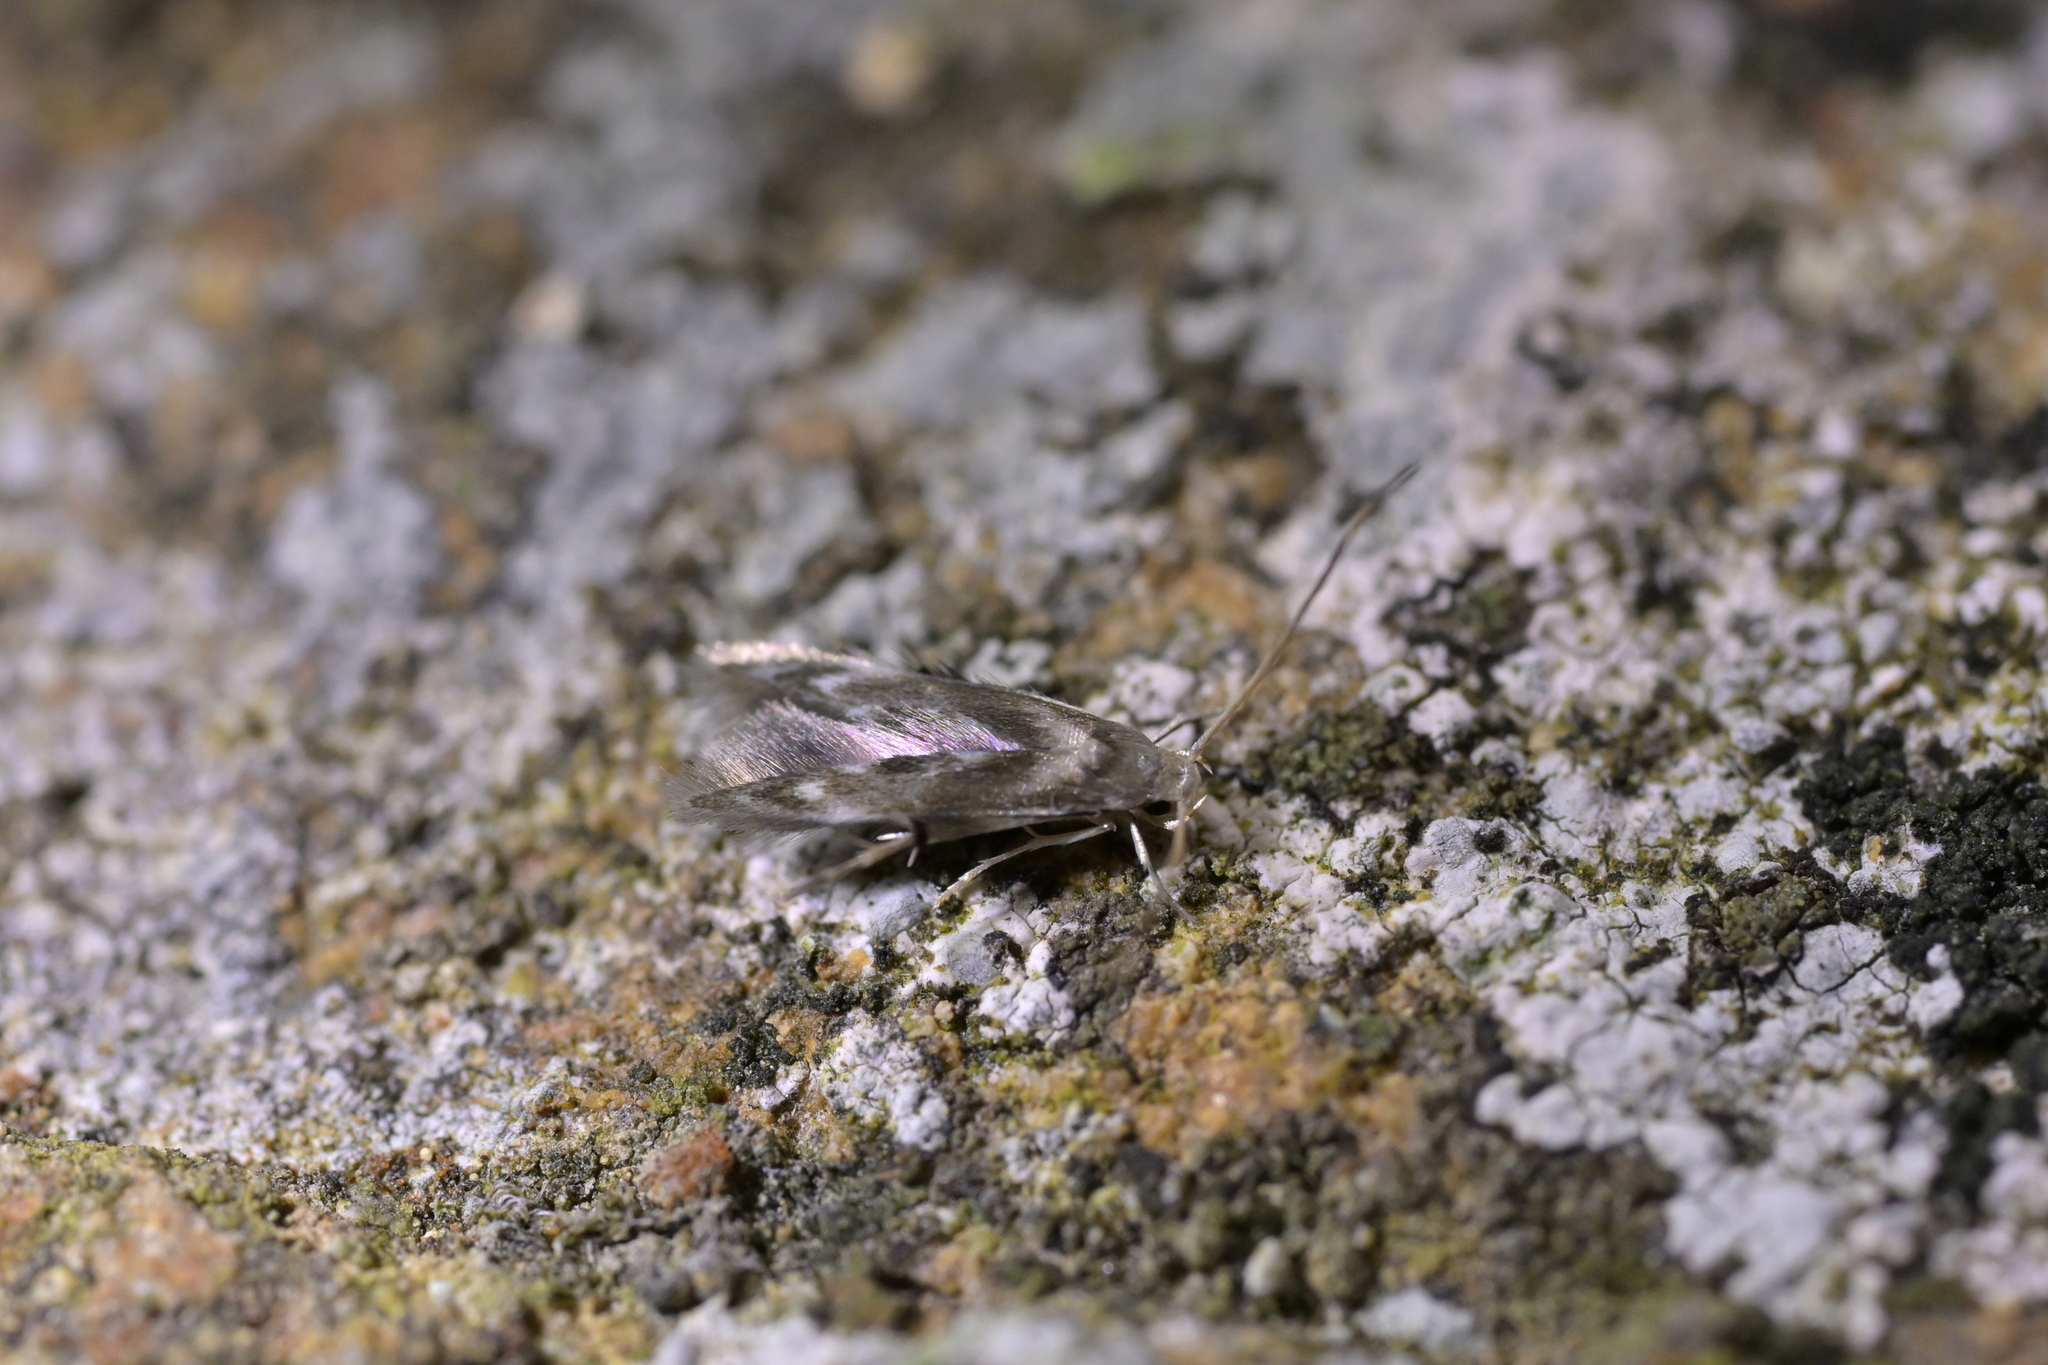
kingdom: Animalia
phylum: Arthropoda
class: Insecta
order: Lepidoptera
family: Stathmopodidae
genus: Thylacosceles
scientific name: Thylacosceles radians
